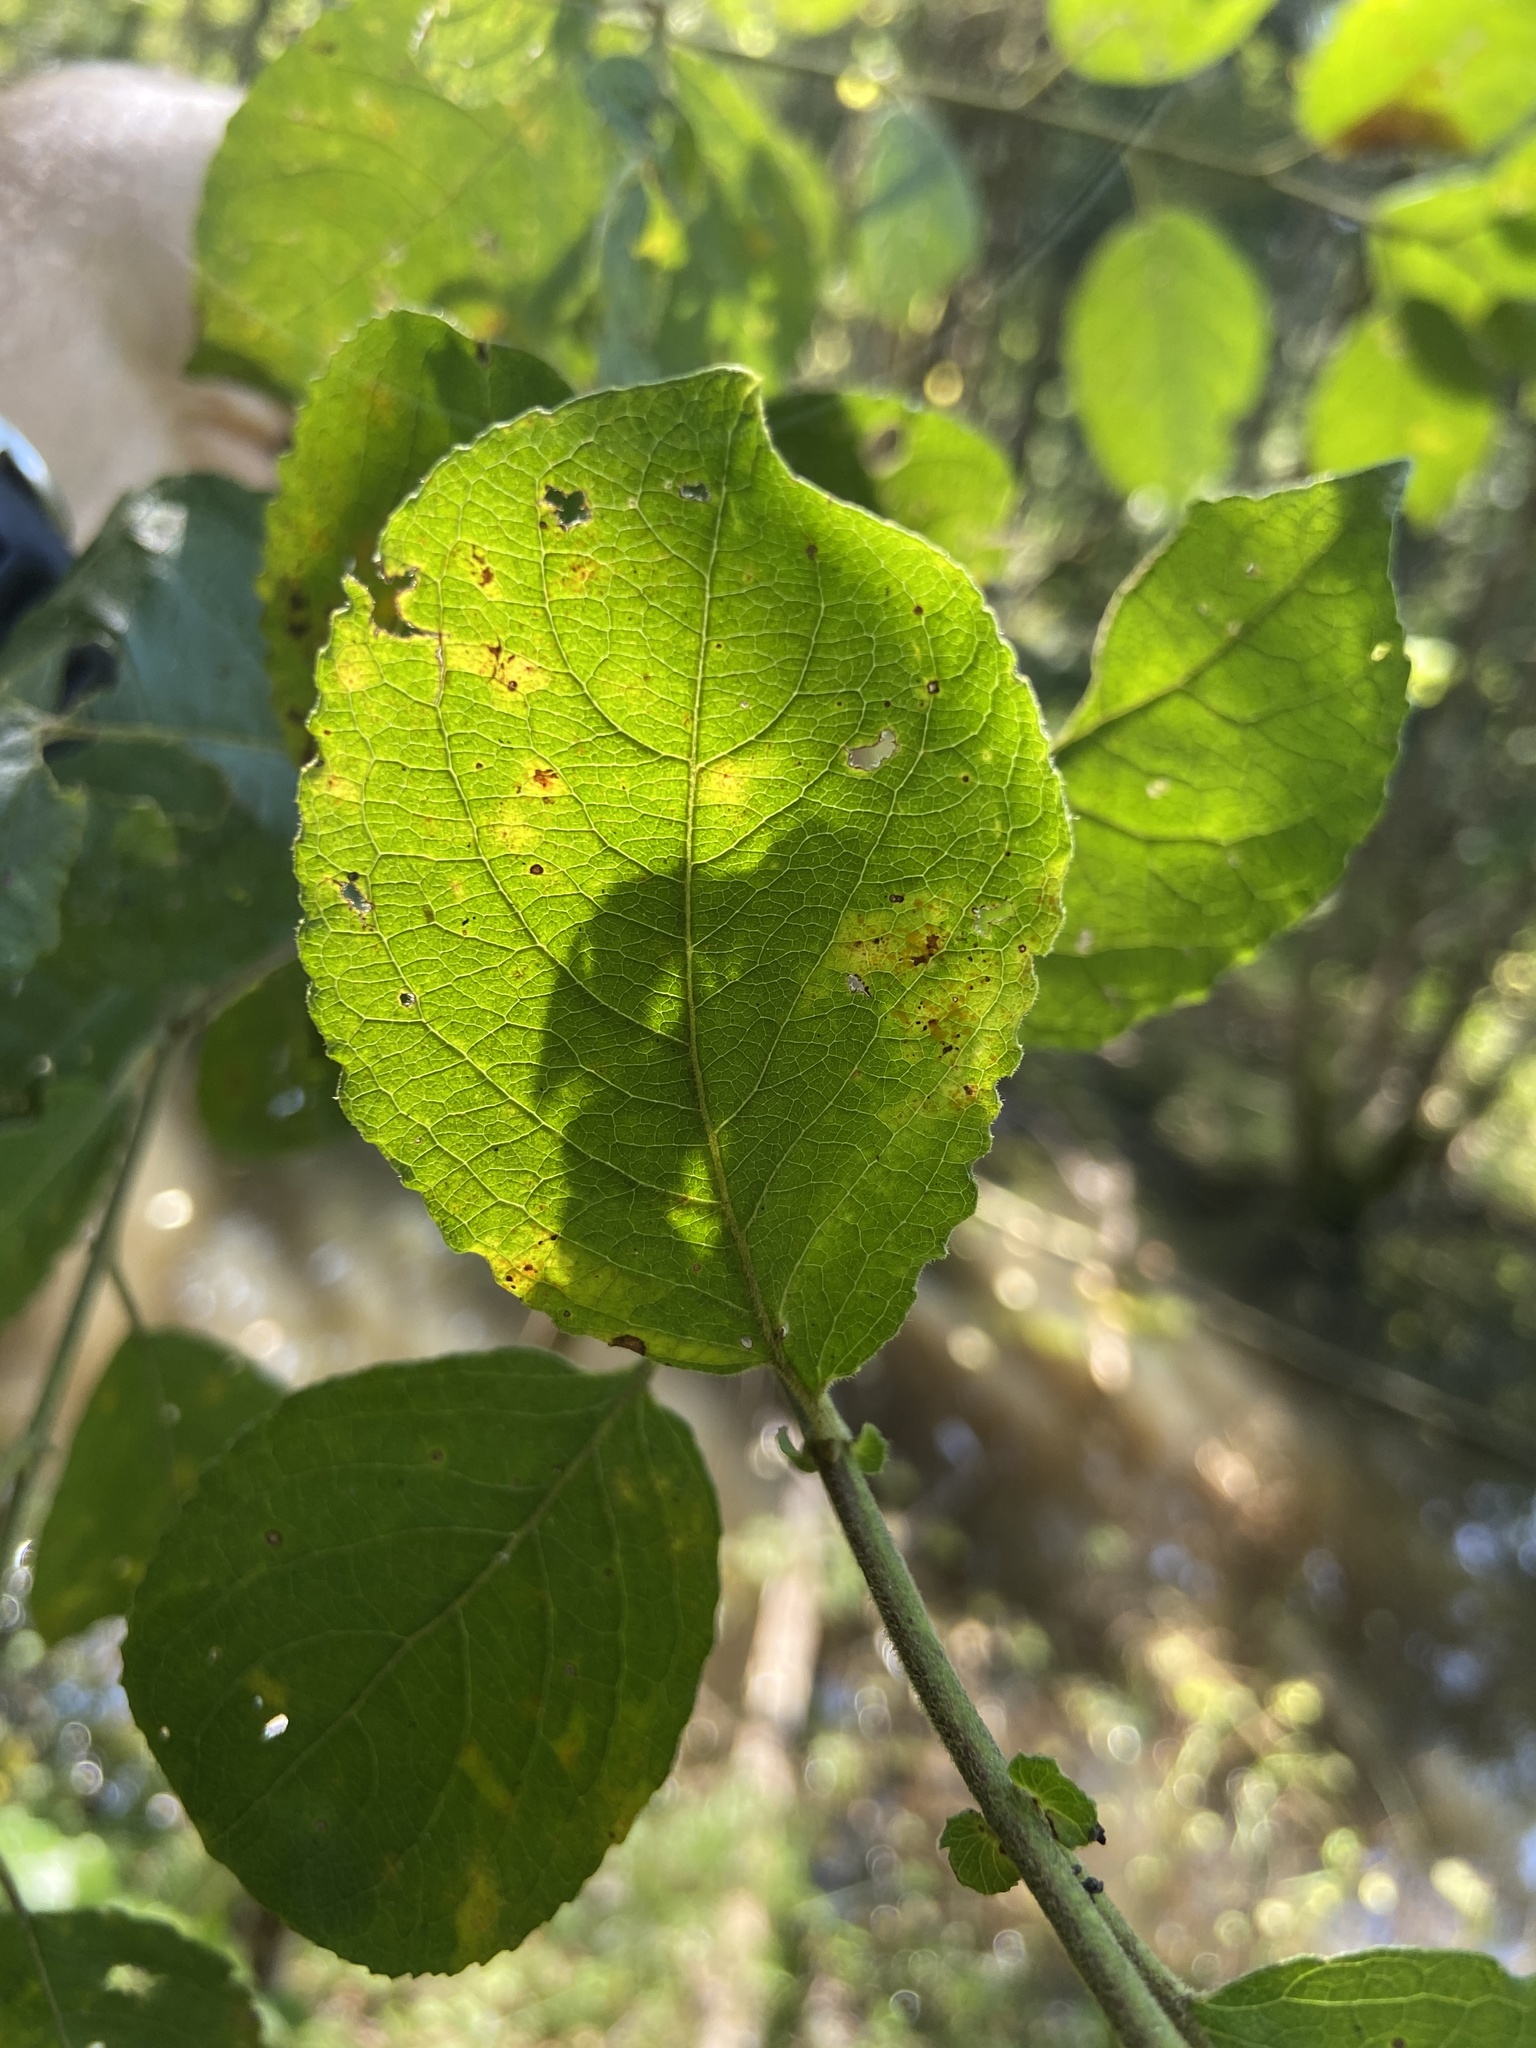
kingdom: Plantae
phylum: Tracheophyta
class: Magnoliopsida
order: Malpighiales
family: Salicaceae
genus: Salix
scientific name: Salix caprea
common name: Goat willow
